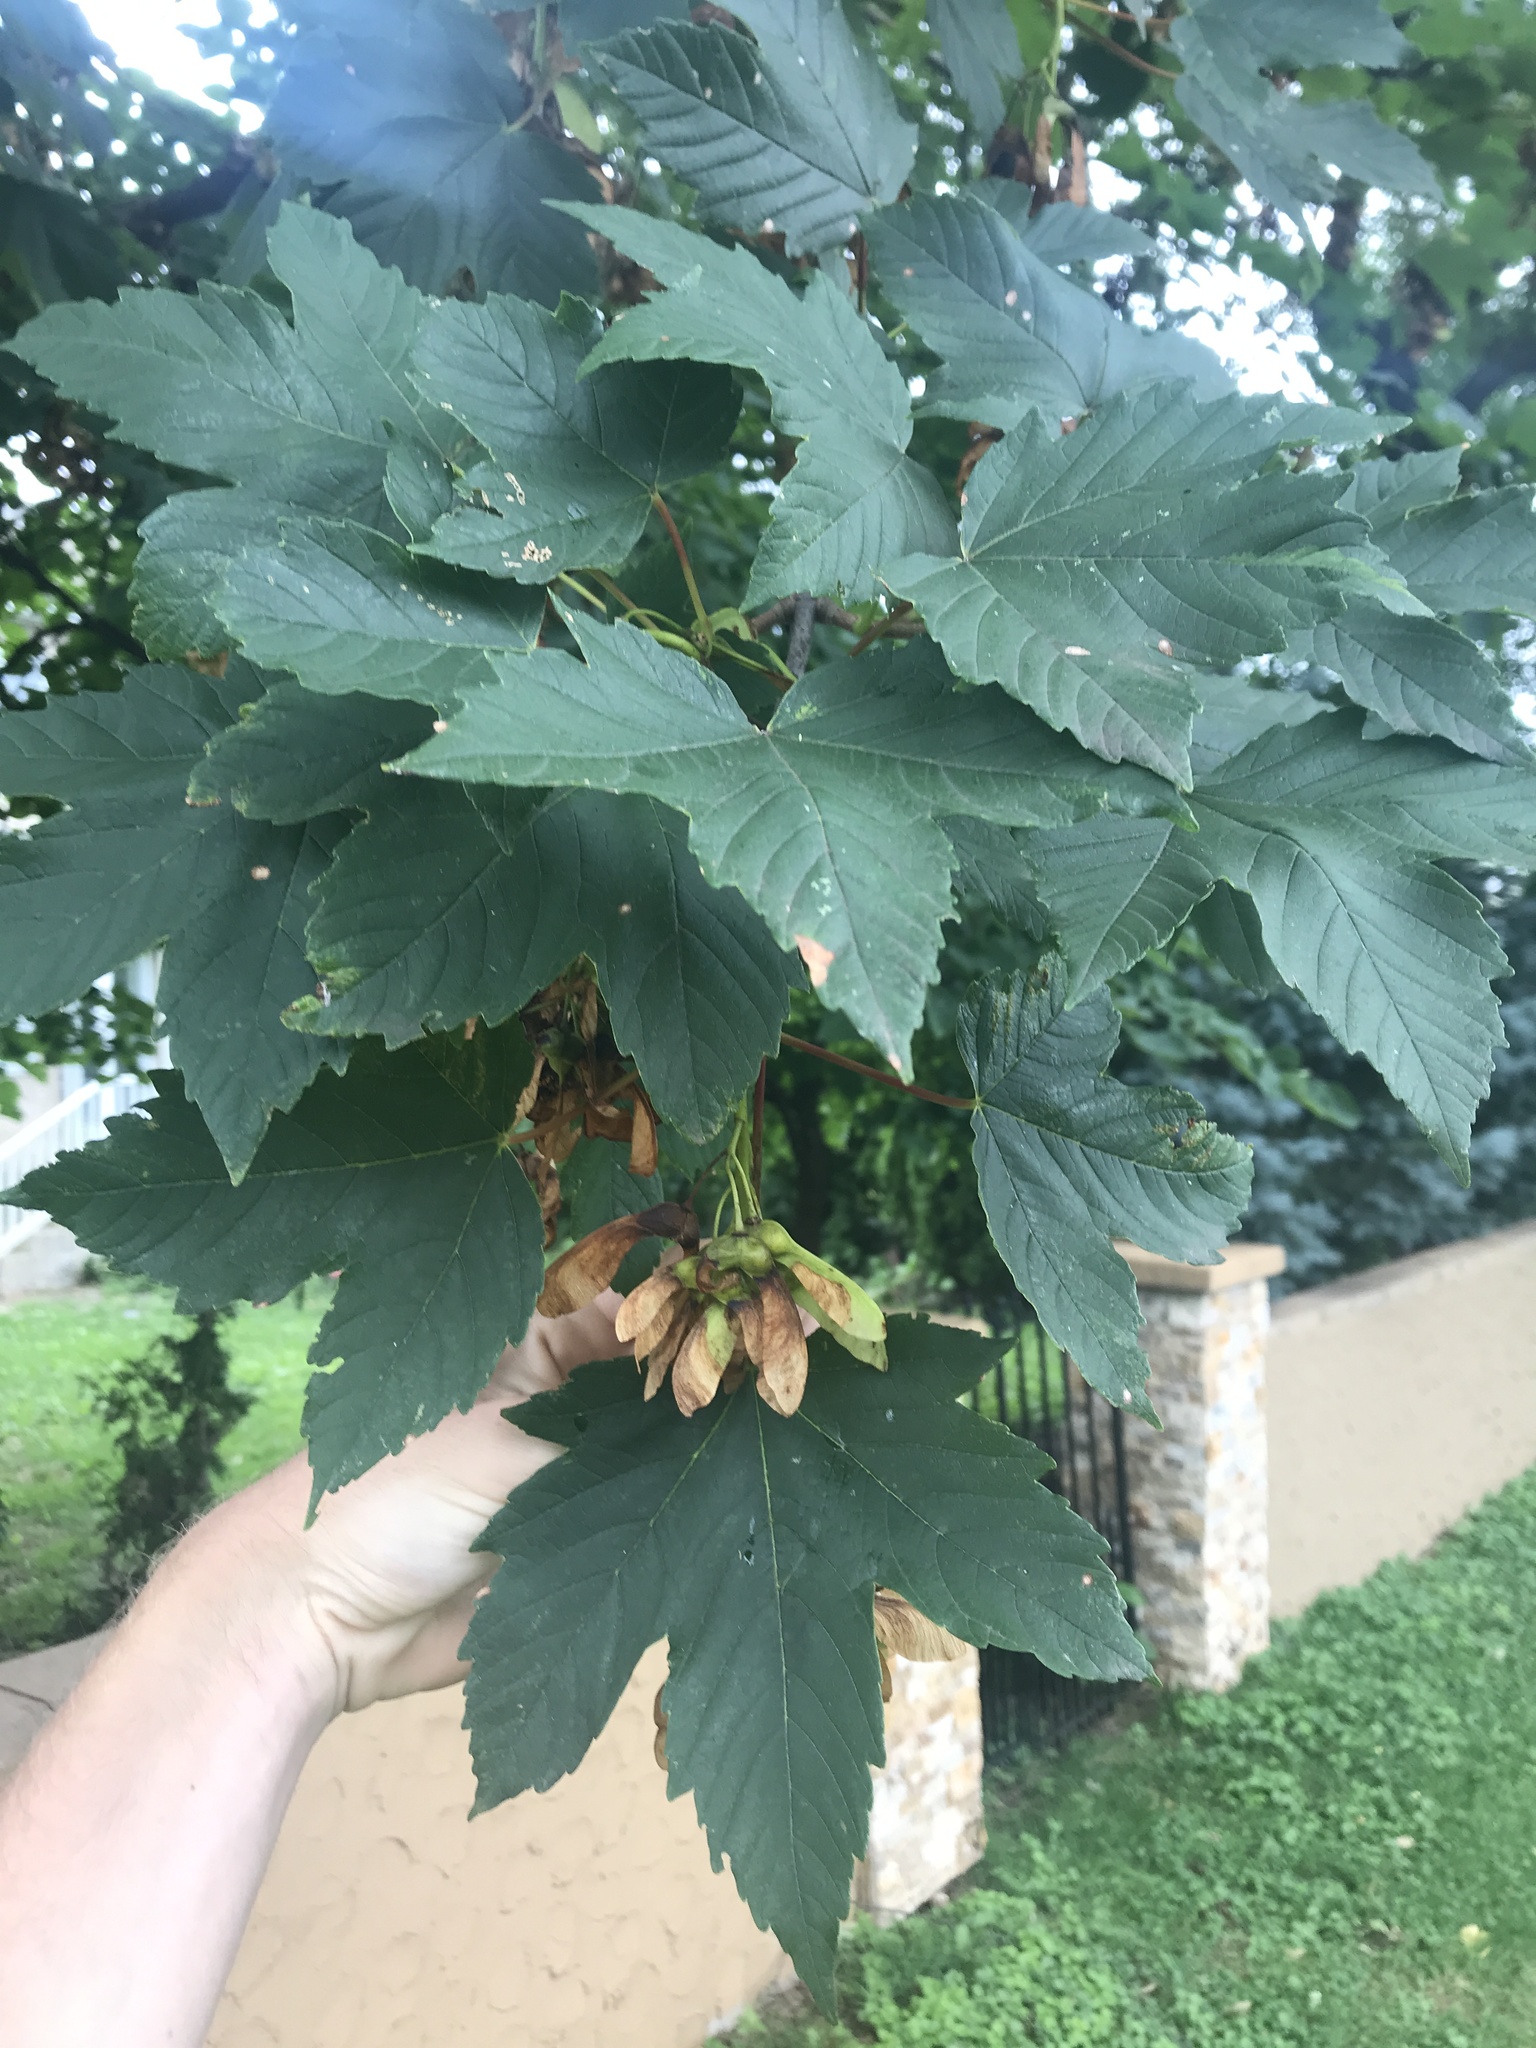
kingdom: Plantae
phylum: Tracheophyta
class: Magnoliopsida
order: Sapindales
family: Sapindaceae
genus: Acer
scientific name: Acer pseudoplatanus
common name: Sycamore
